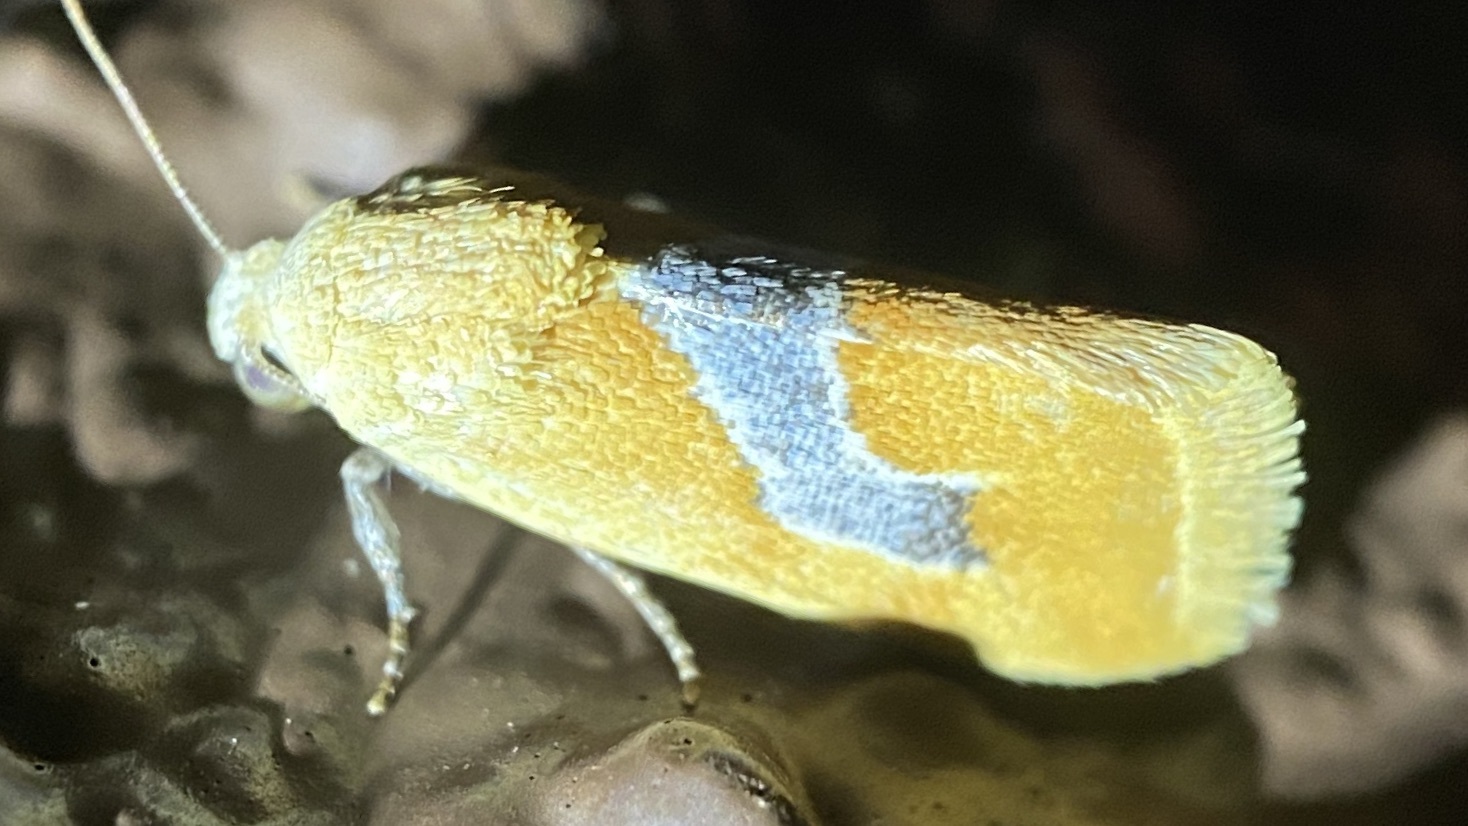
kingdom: Animalia
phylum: Arthropoda
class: Insecta
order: Lepidoptera
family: Noctuidae
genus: Ponometia
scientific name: Ponometia venustula
